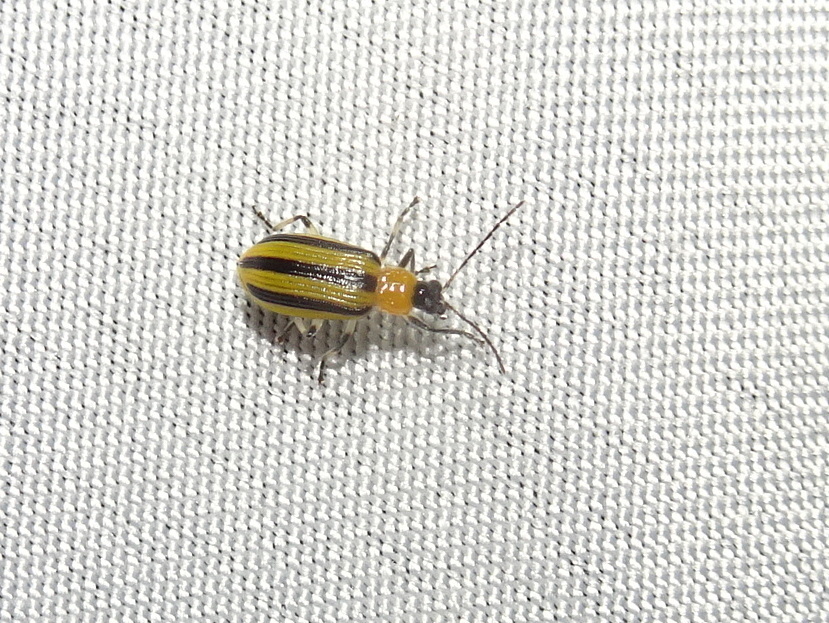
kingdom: Animalia
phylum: Arthropoda
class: Insecta
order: Coleoptera
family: Chrysomelidae
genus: Acalymma
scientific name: Acalymma vittatum
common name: Striped cucumber beetle
